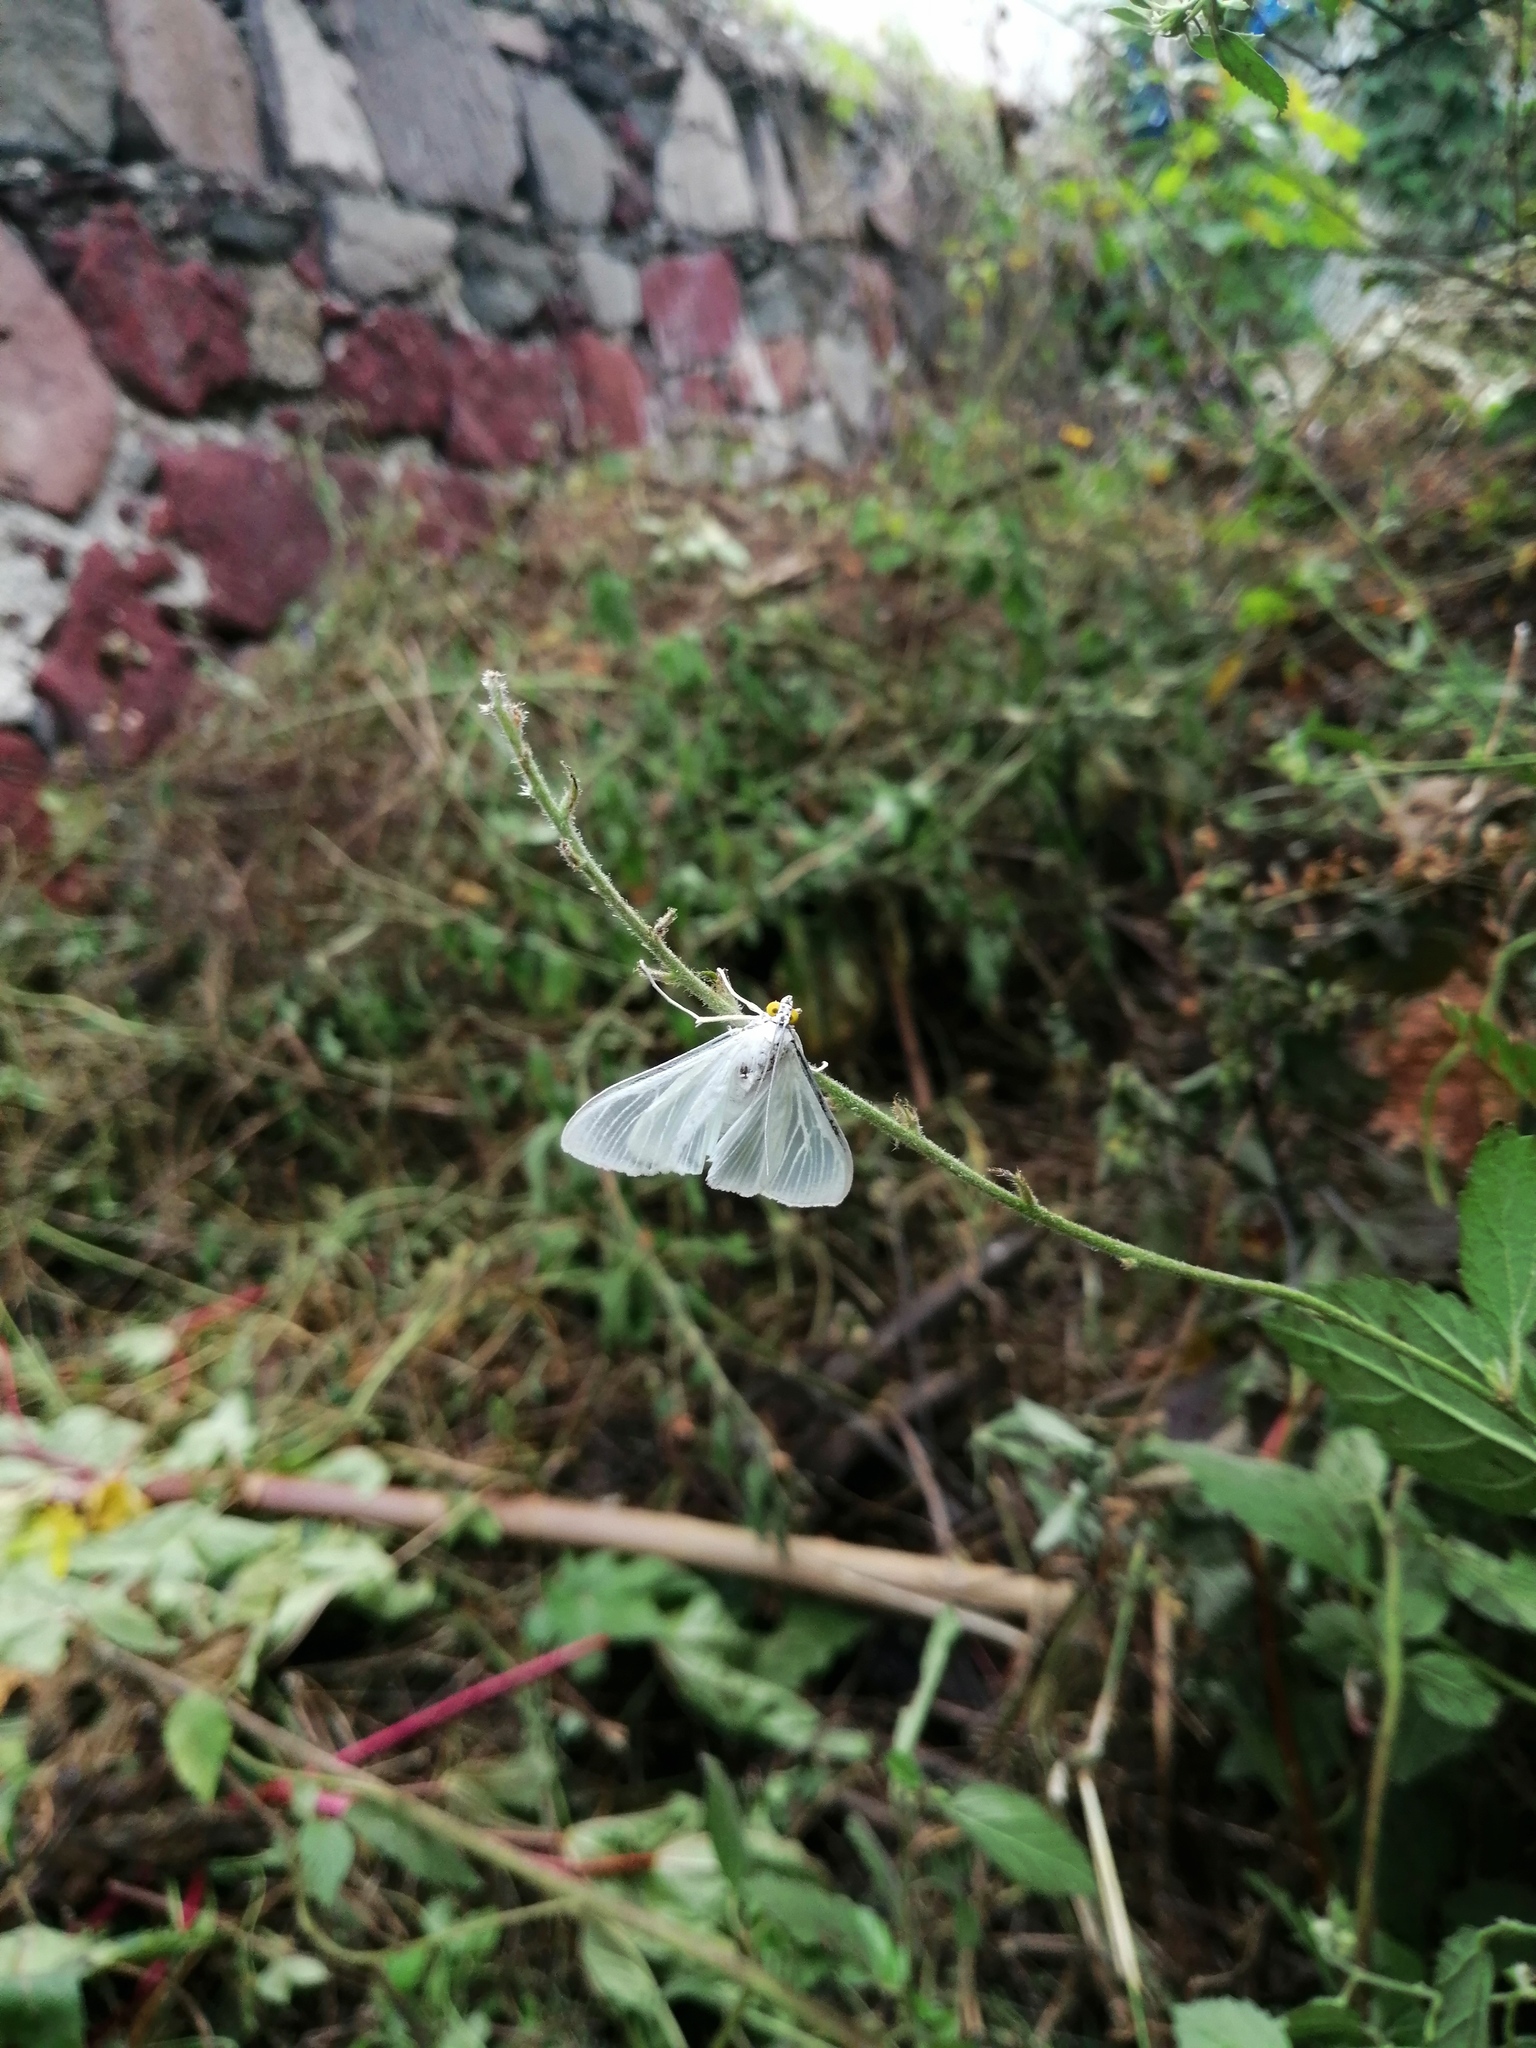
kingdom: Animalia
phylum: Arthropoda
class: Insecta
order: Lepidoptera
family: Crambidae
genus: Palpita
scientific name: Palpita flegia
